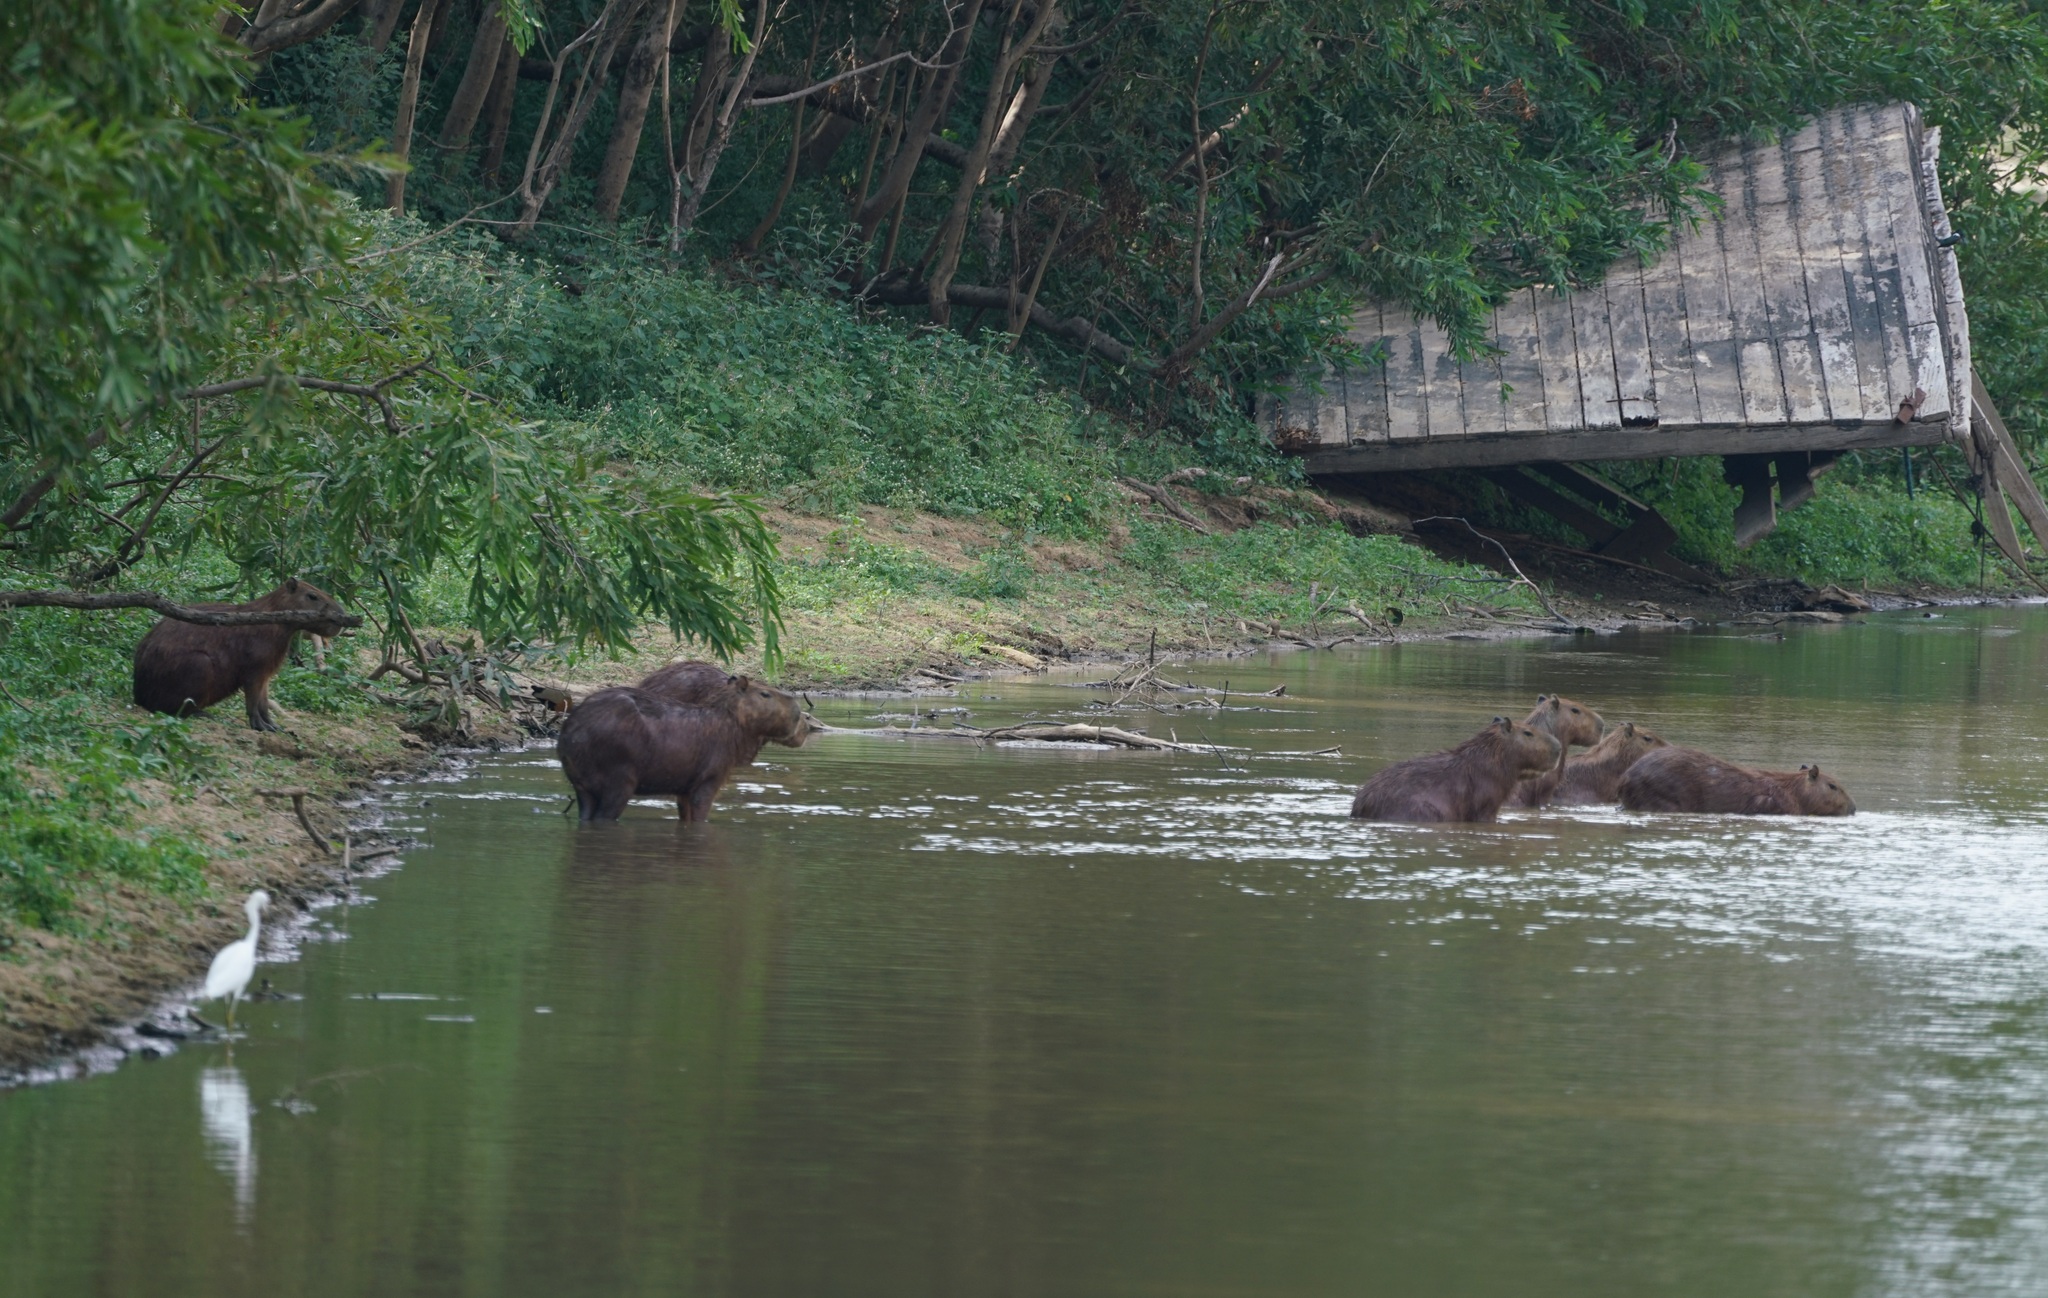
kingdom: Animalia
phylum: Chordata
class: Mammalia
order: Rodentia
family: Caviidae
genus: Hydrochoerus
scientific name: Hydrochoerus hydrochaeris
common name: Capybara
